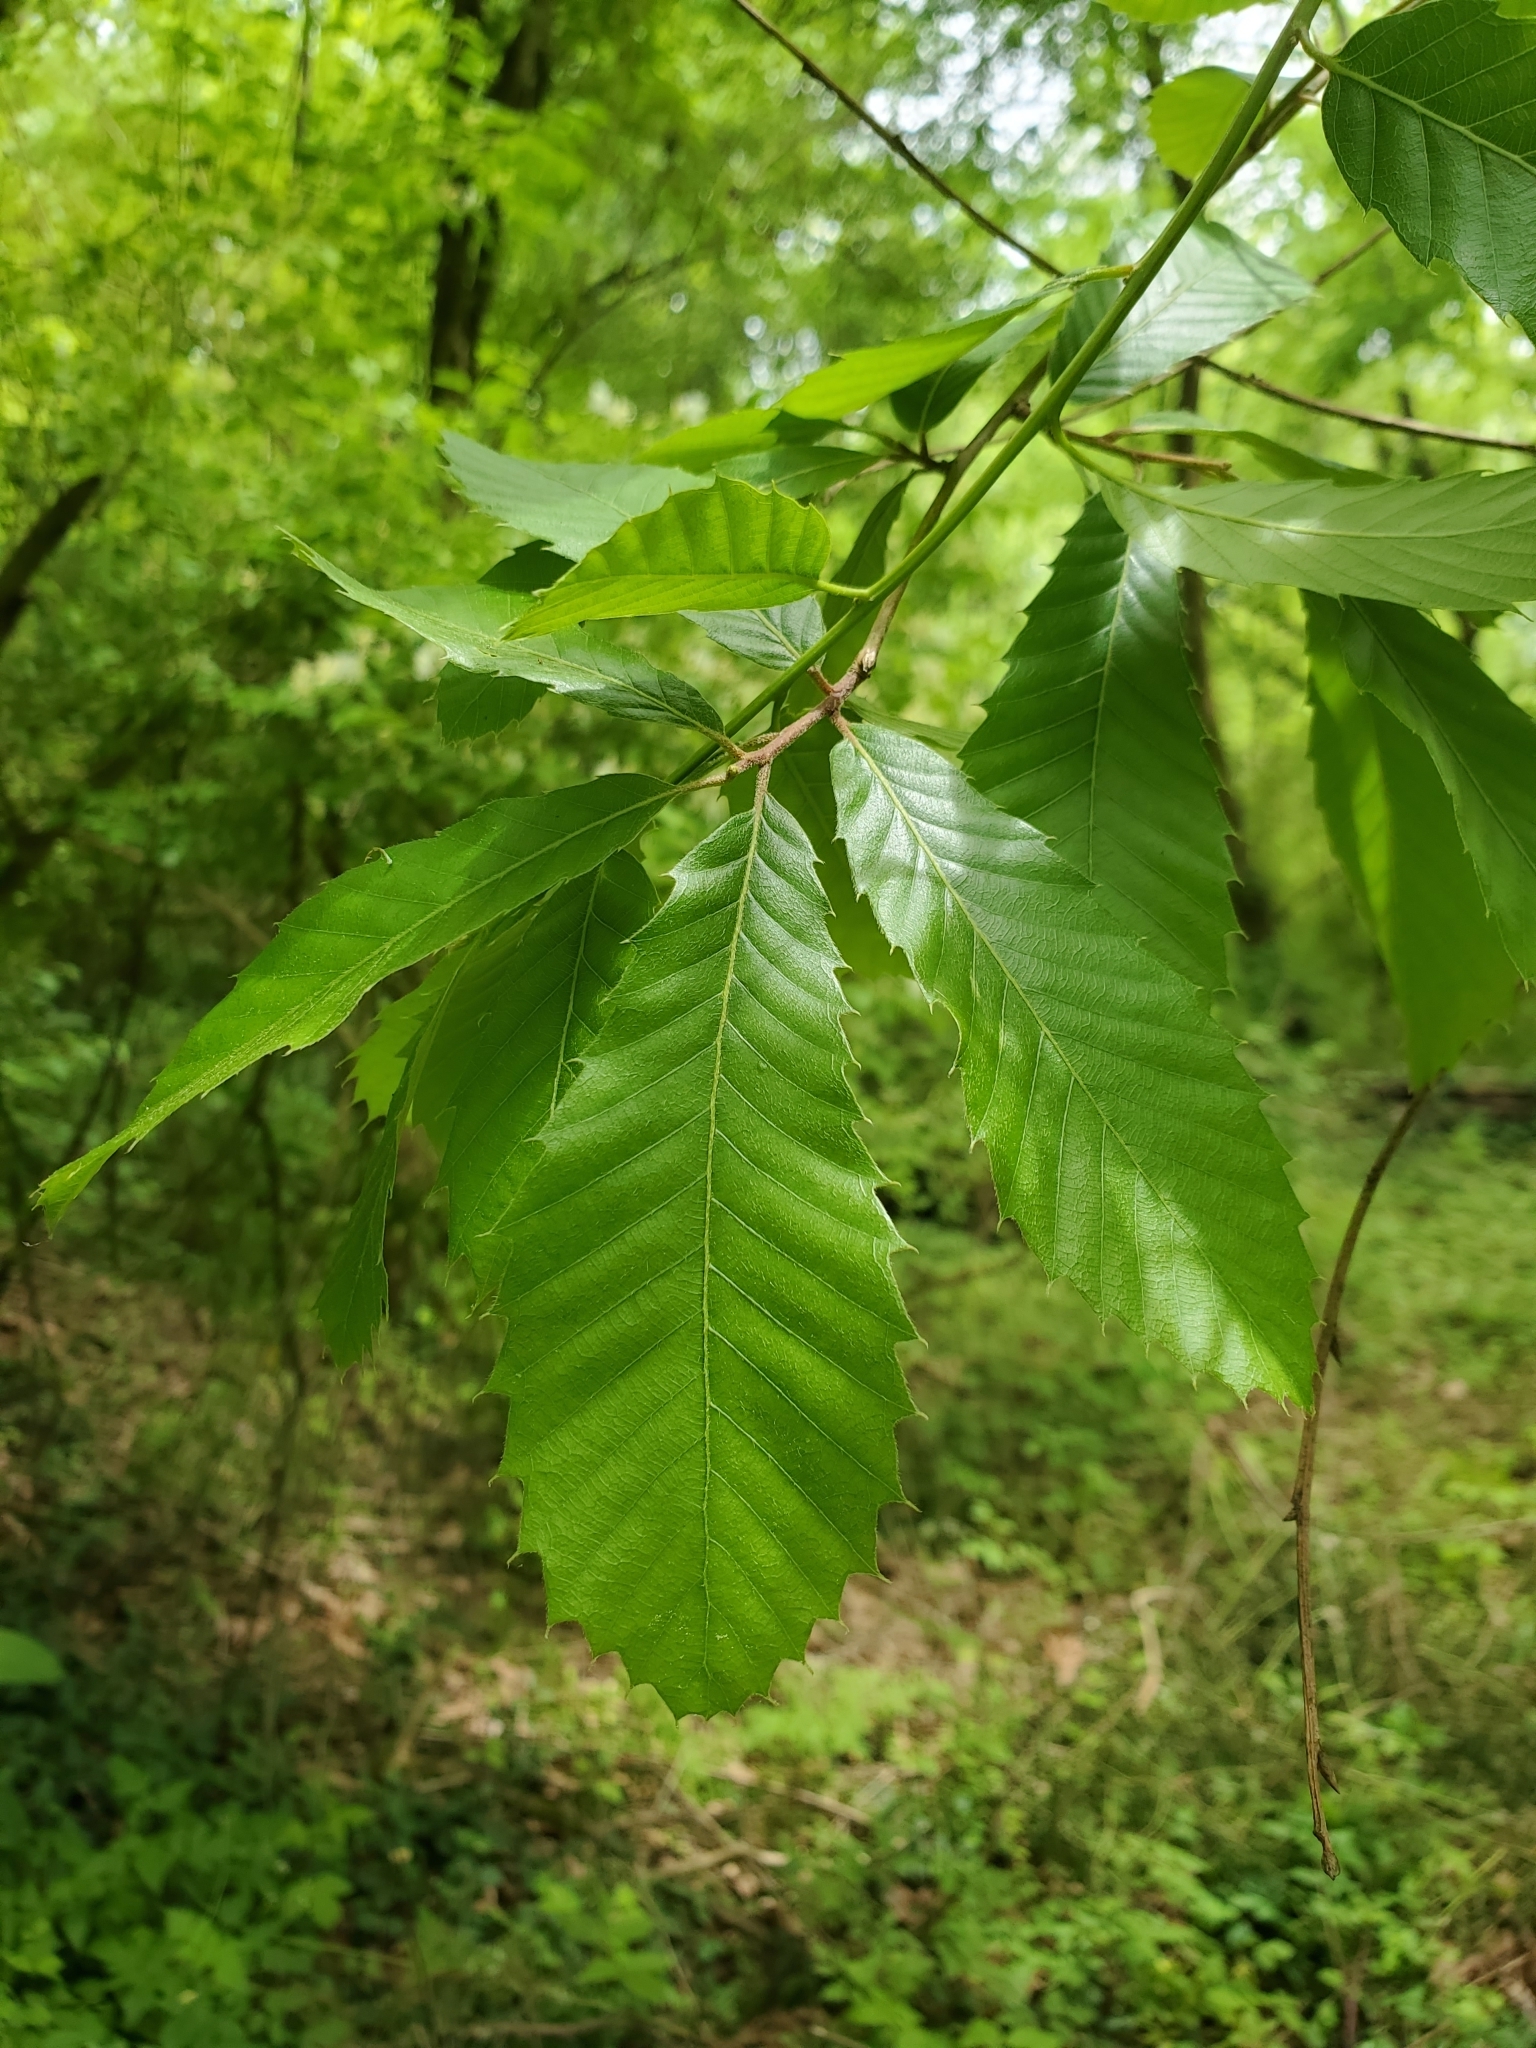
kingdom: Plantae
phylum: Tracheophyta
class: Magnoliopsida
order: Fagales
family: Fagaceae
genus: Castanea
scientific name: Castanea pumila
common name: Chinkapin
